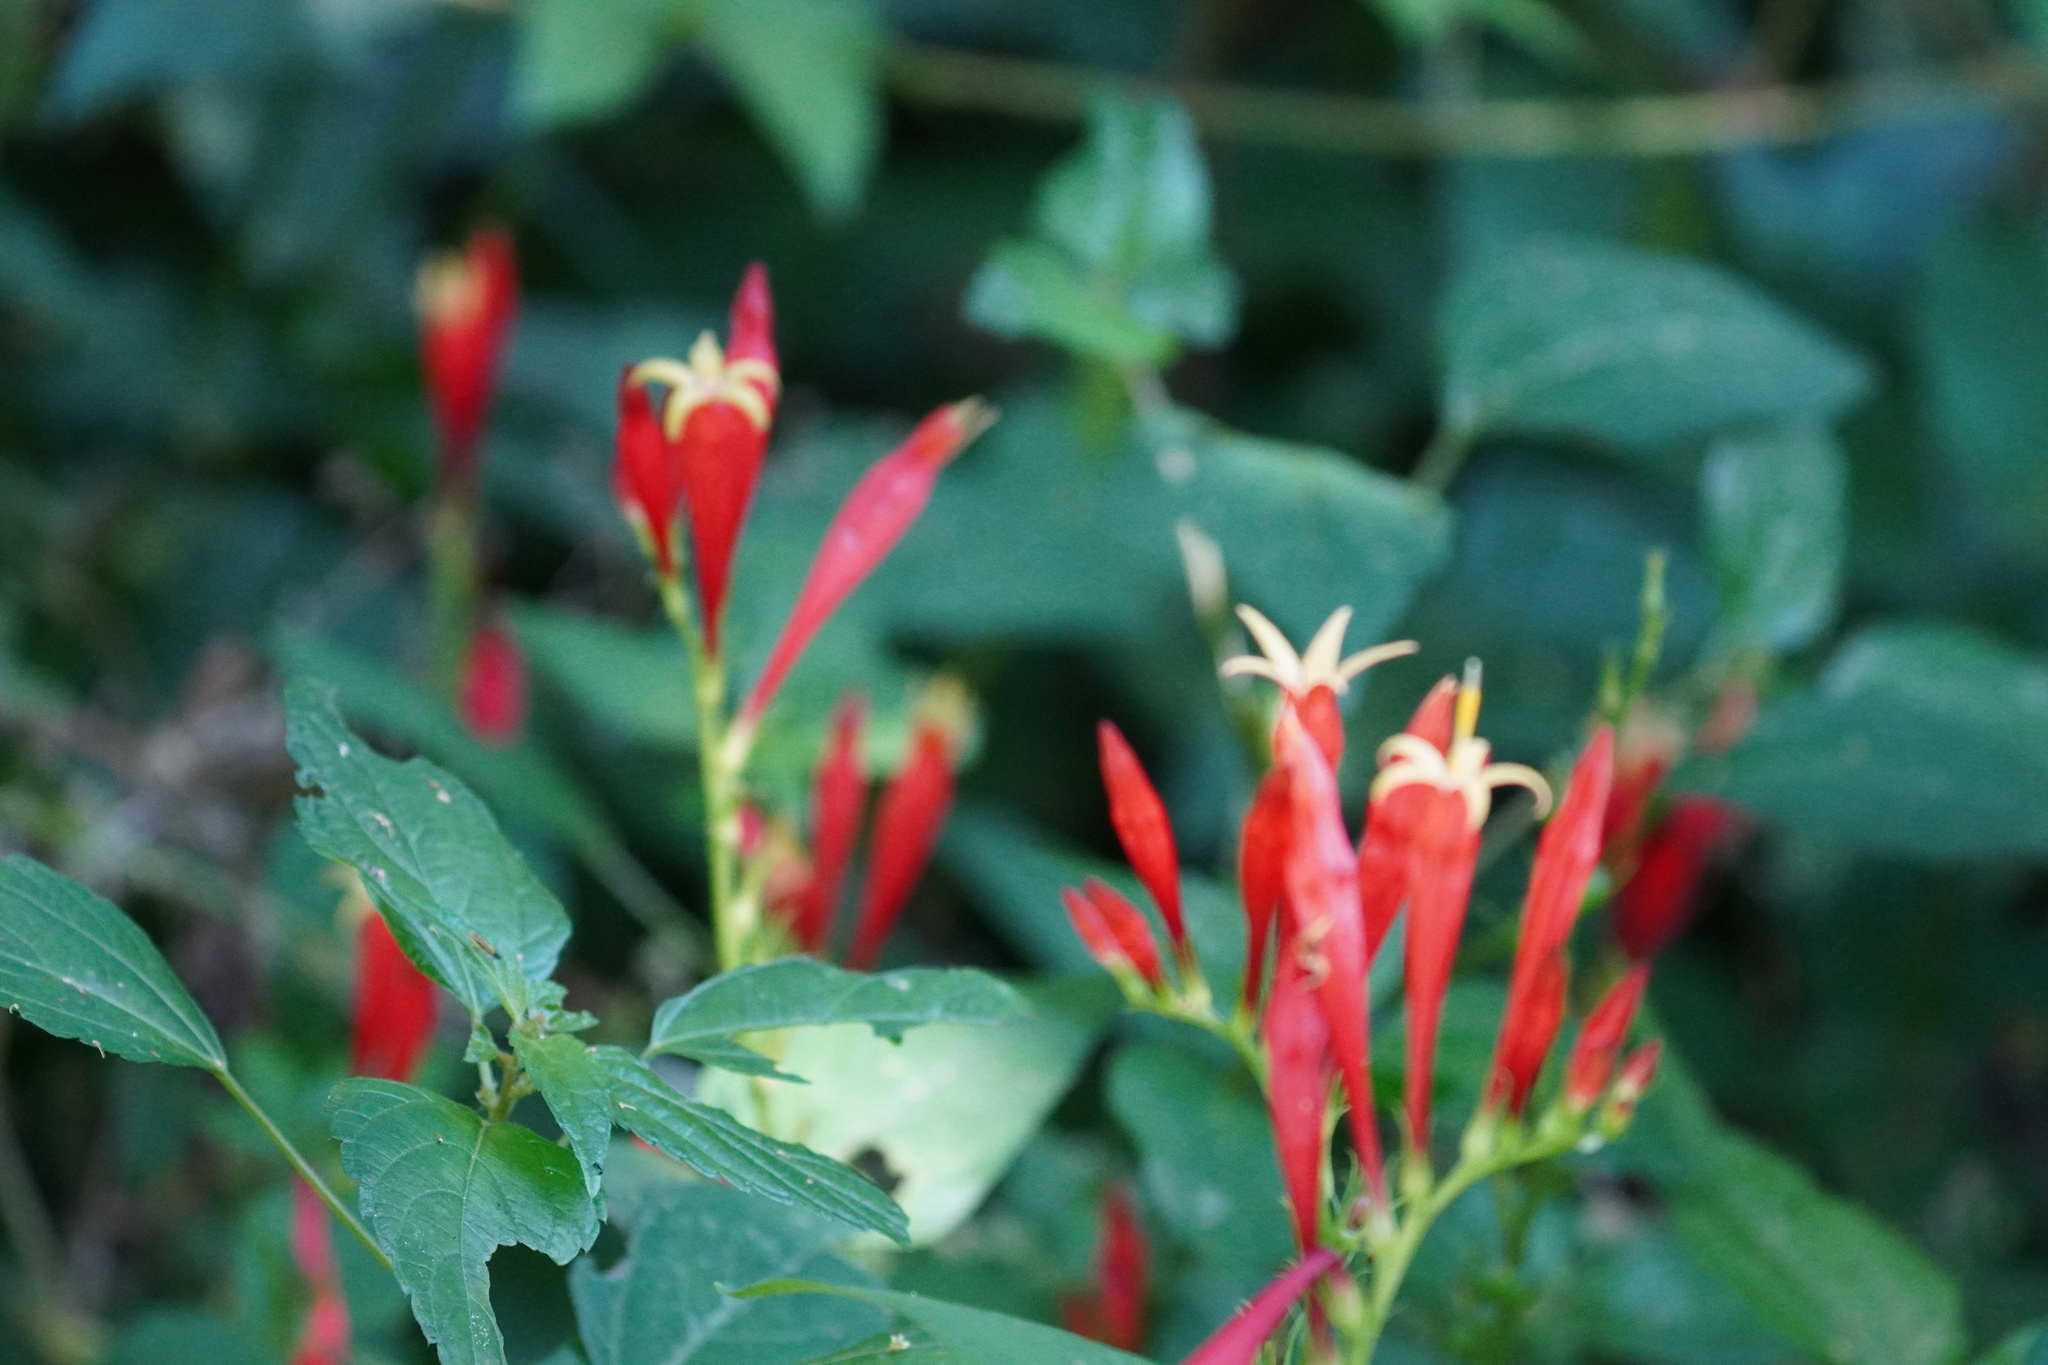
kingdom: Plantae
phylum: Tracheophyta
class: Magnoliopsida
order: Gentianales
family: Loganiaceae
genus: Spigelia
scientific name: Spigelia marilandica
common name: Indian-pink
